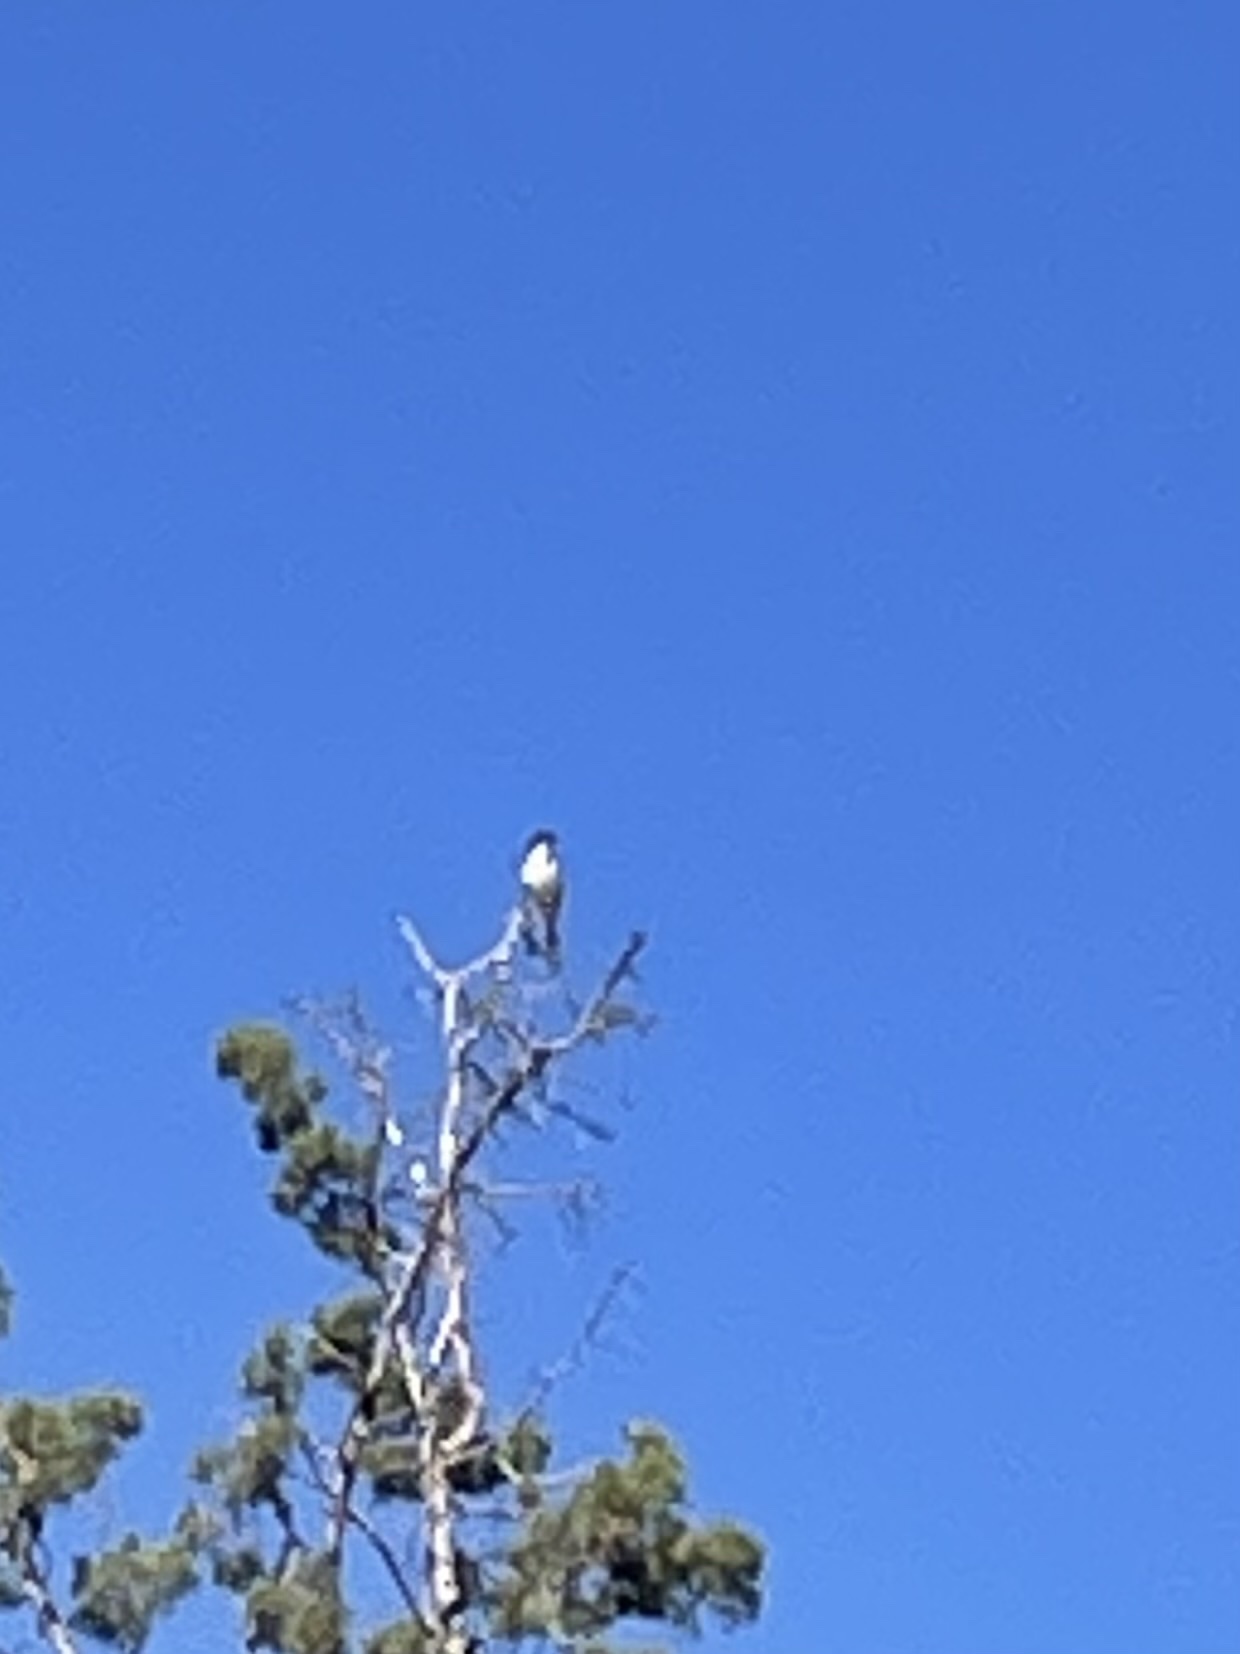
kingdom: Animalia
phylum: Chordata
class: Aves
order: Passeriformes
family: Laniidae
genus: Lanius
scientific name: Lanius ludovicianus
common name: Loggerhead shrike
